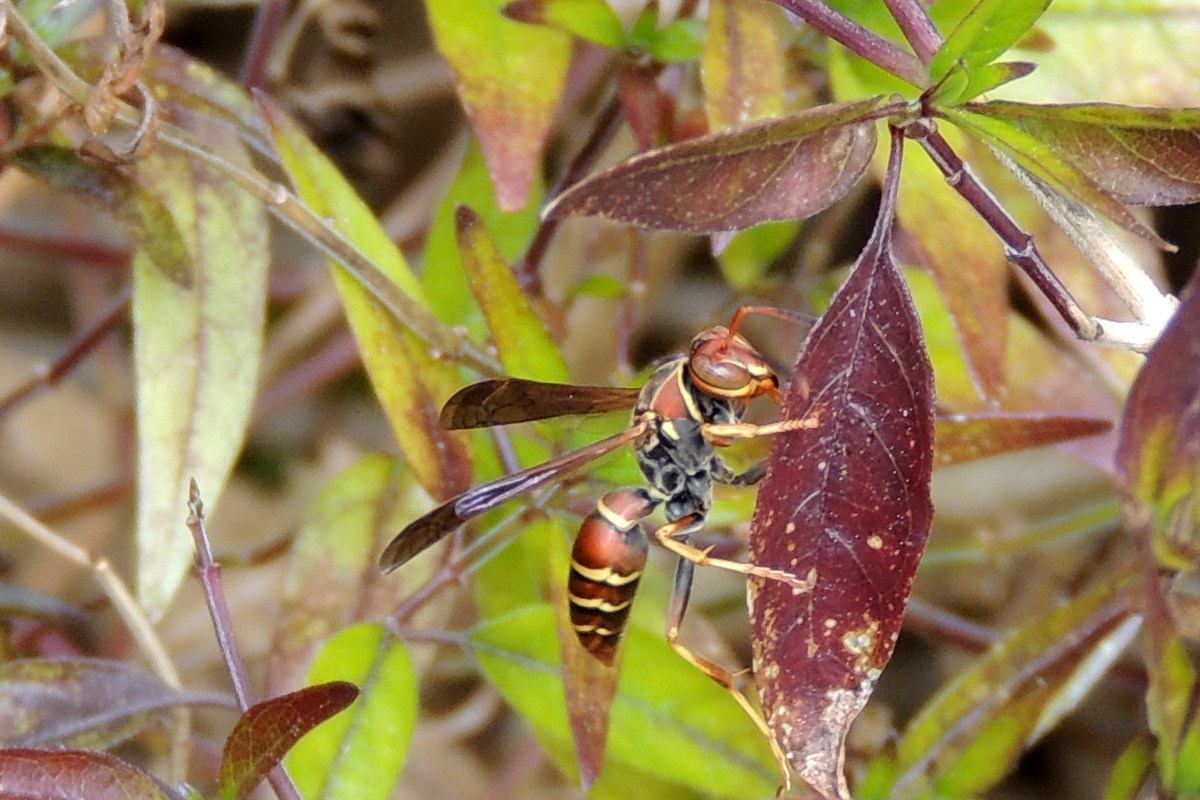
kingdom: Animalia
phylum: Arthropoda
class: Insecta
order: Hymenoptera
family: Eumenidae
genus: Polistes
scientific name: Polistes bahamensis
